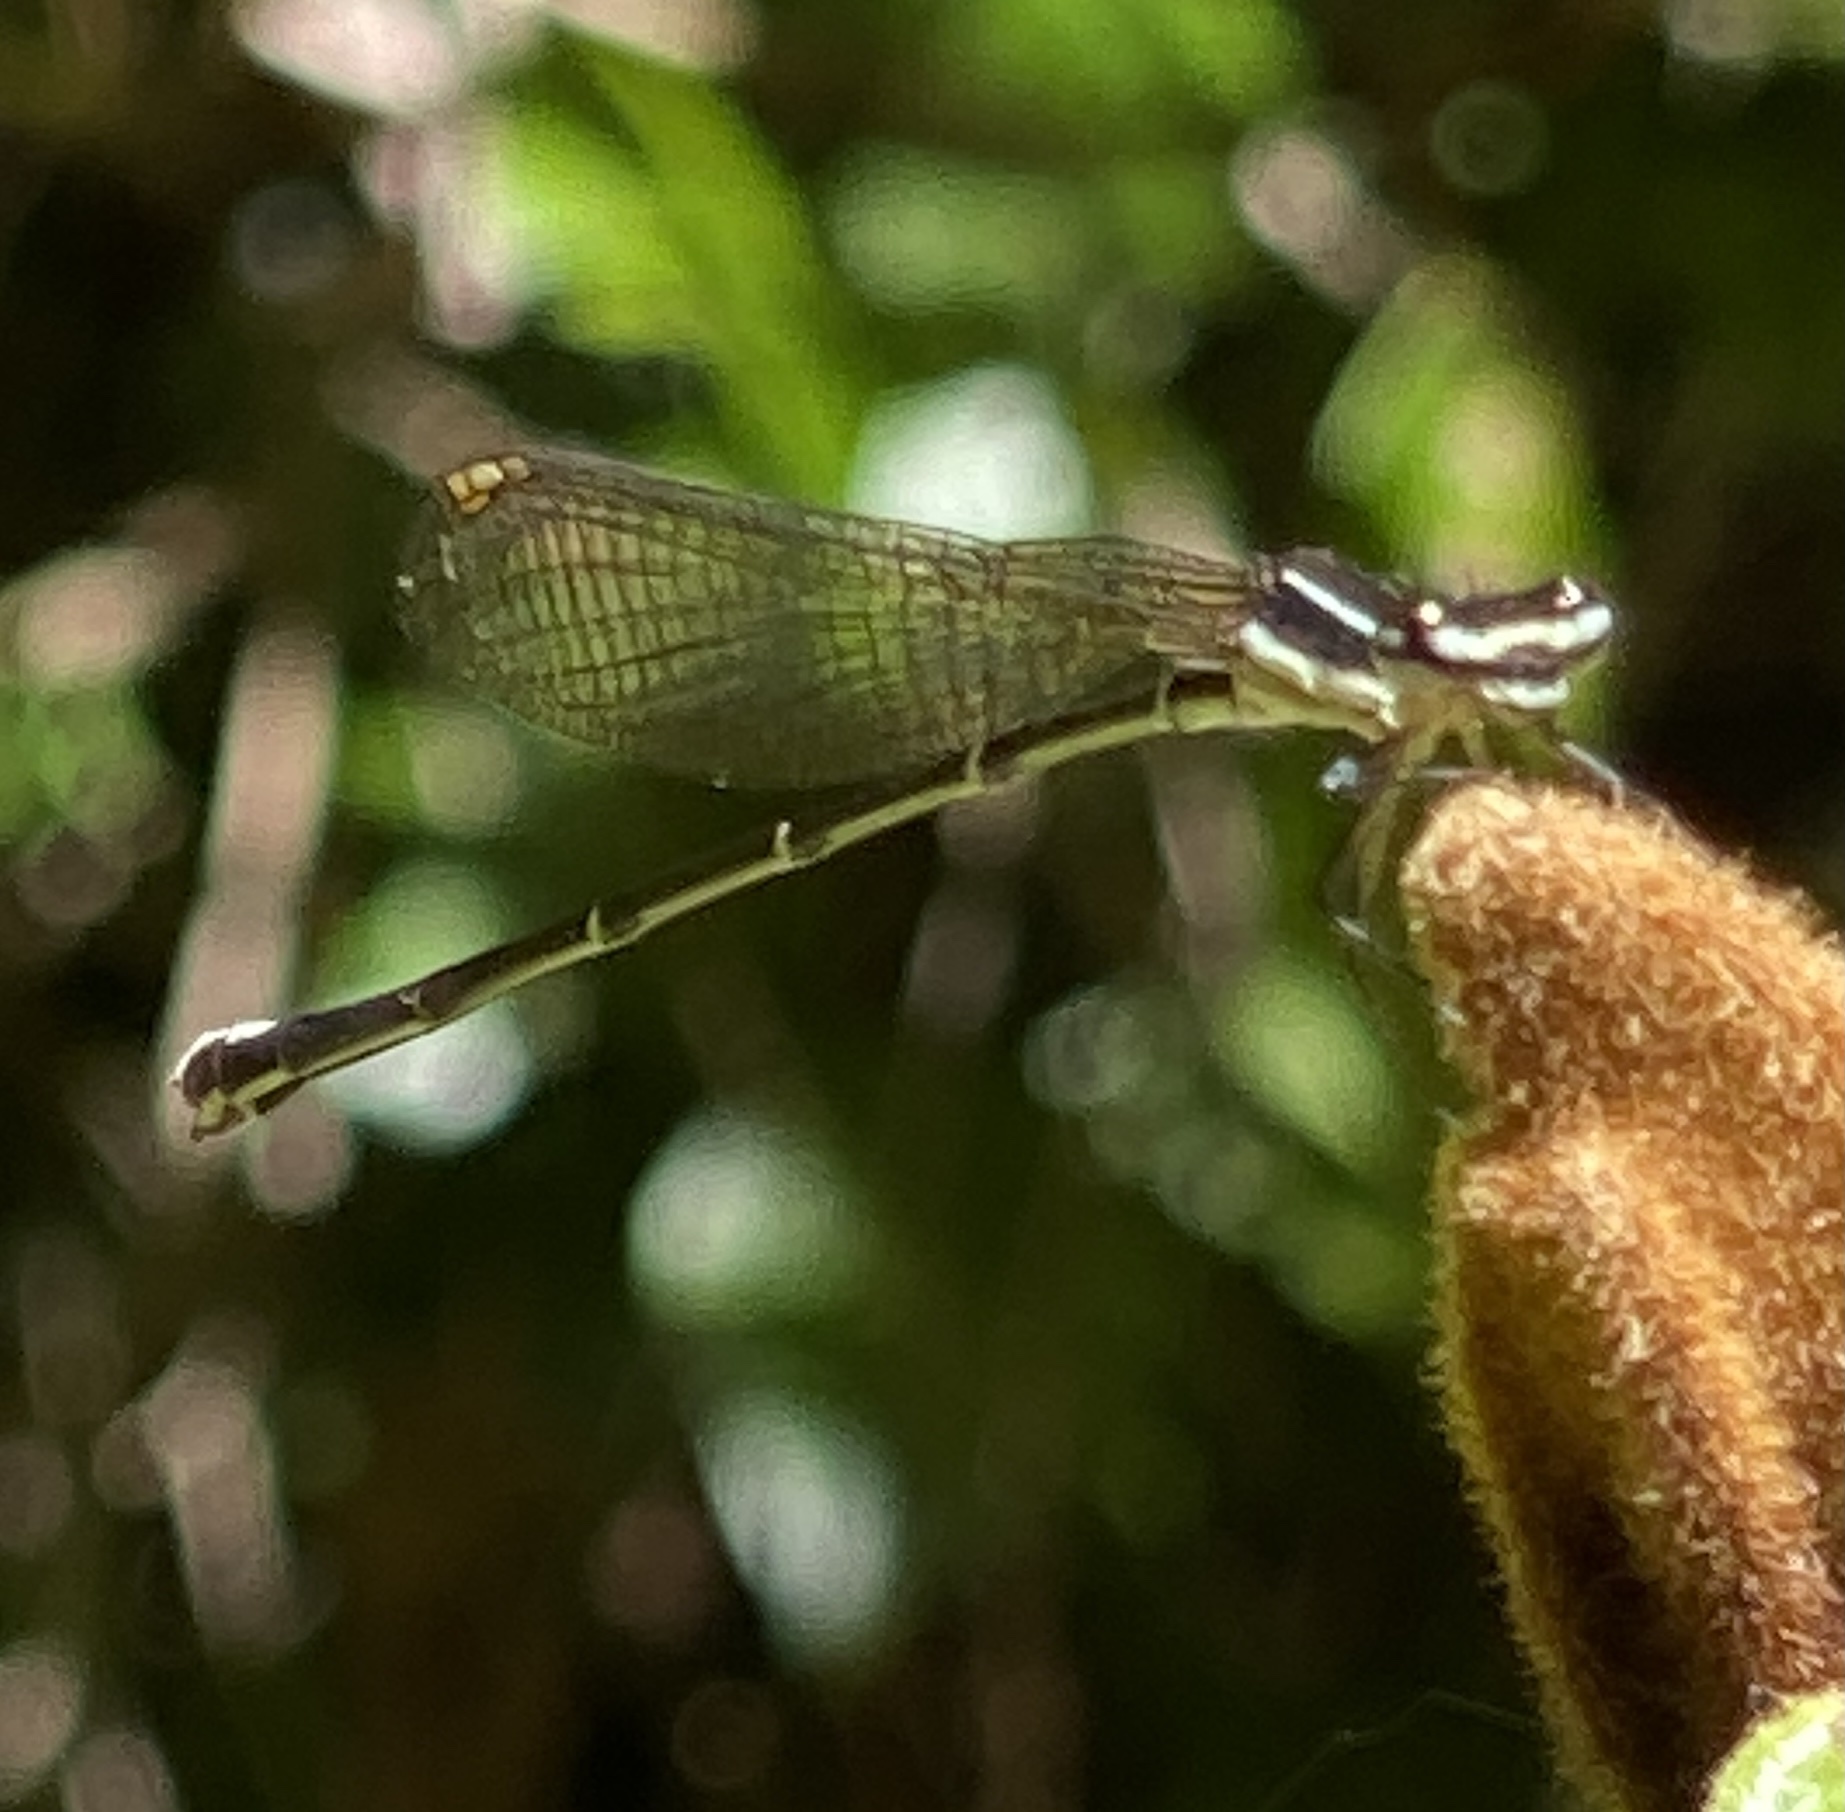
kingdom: Animalia
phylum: Arthropoda
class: Insecta
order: Odonata
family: Platycnemididae
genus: Allocnemis
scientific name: Allocnemis leucosticta
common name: Goldtail
